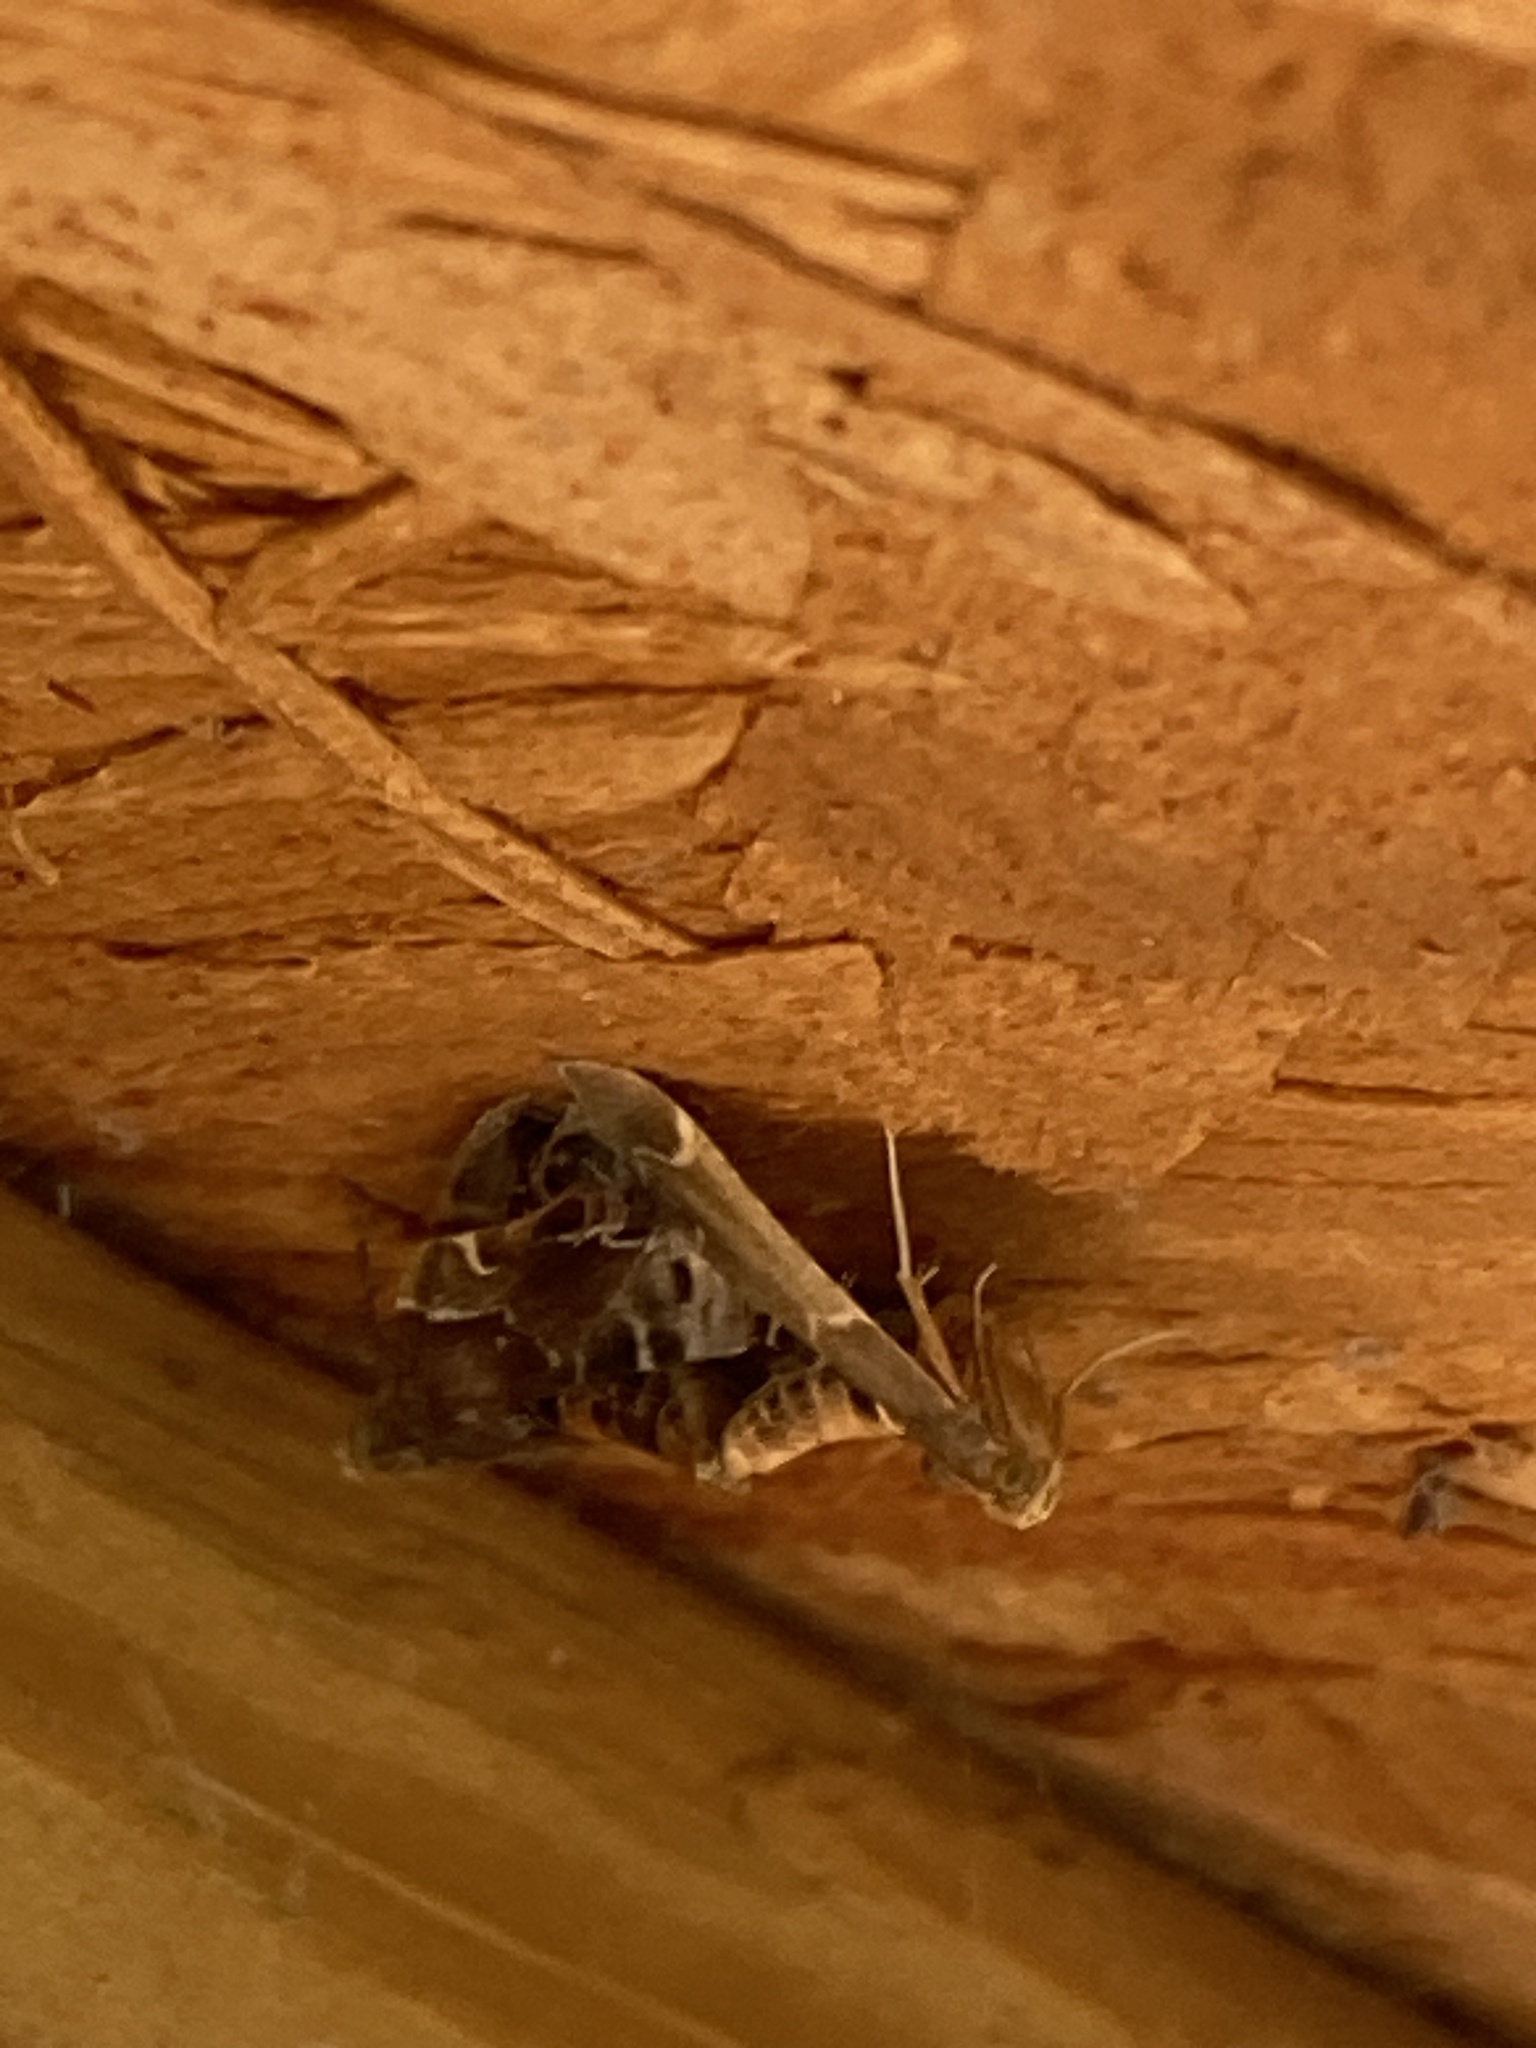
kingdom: Animalia
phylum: Arthropoda
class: Insecta
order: Lepidoptera
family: Pyralidae
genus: Pyralis
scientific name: Pyralis farinalis
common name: Meal moth
